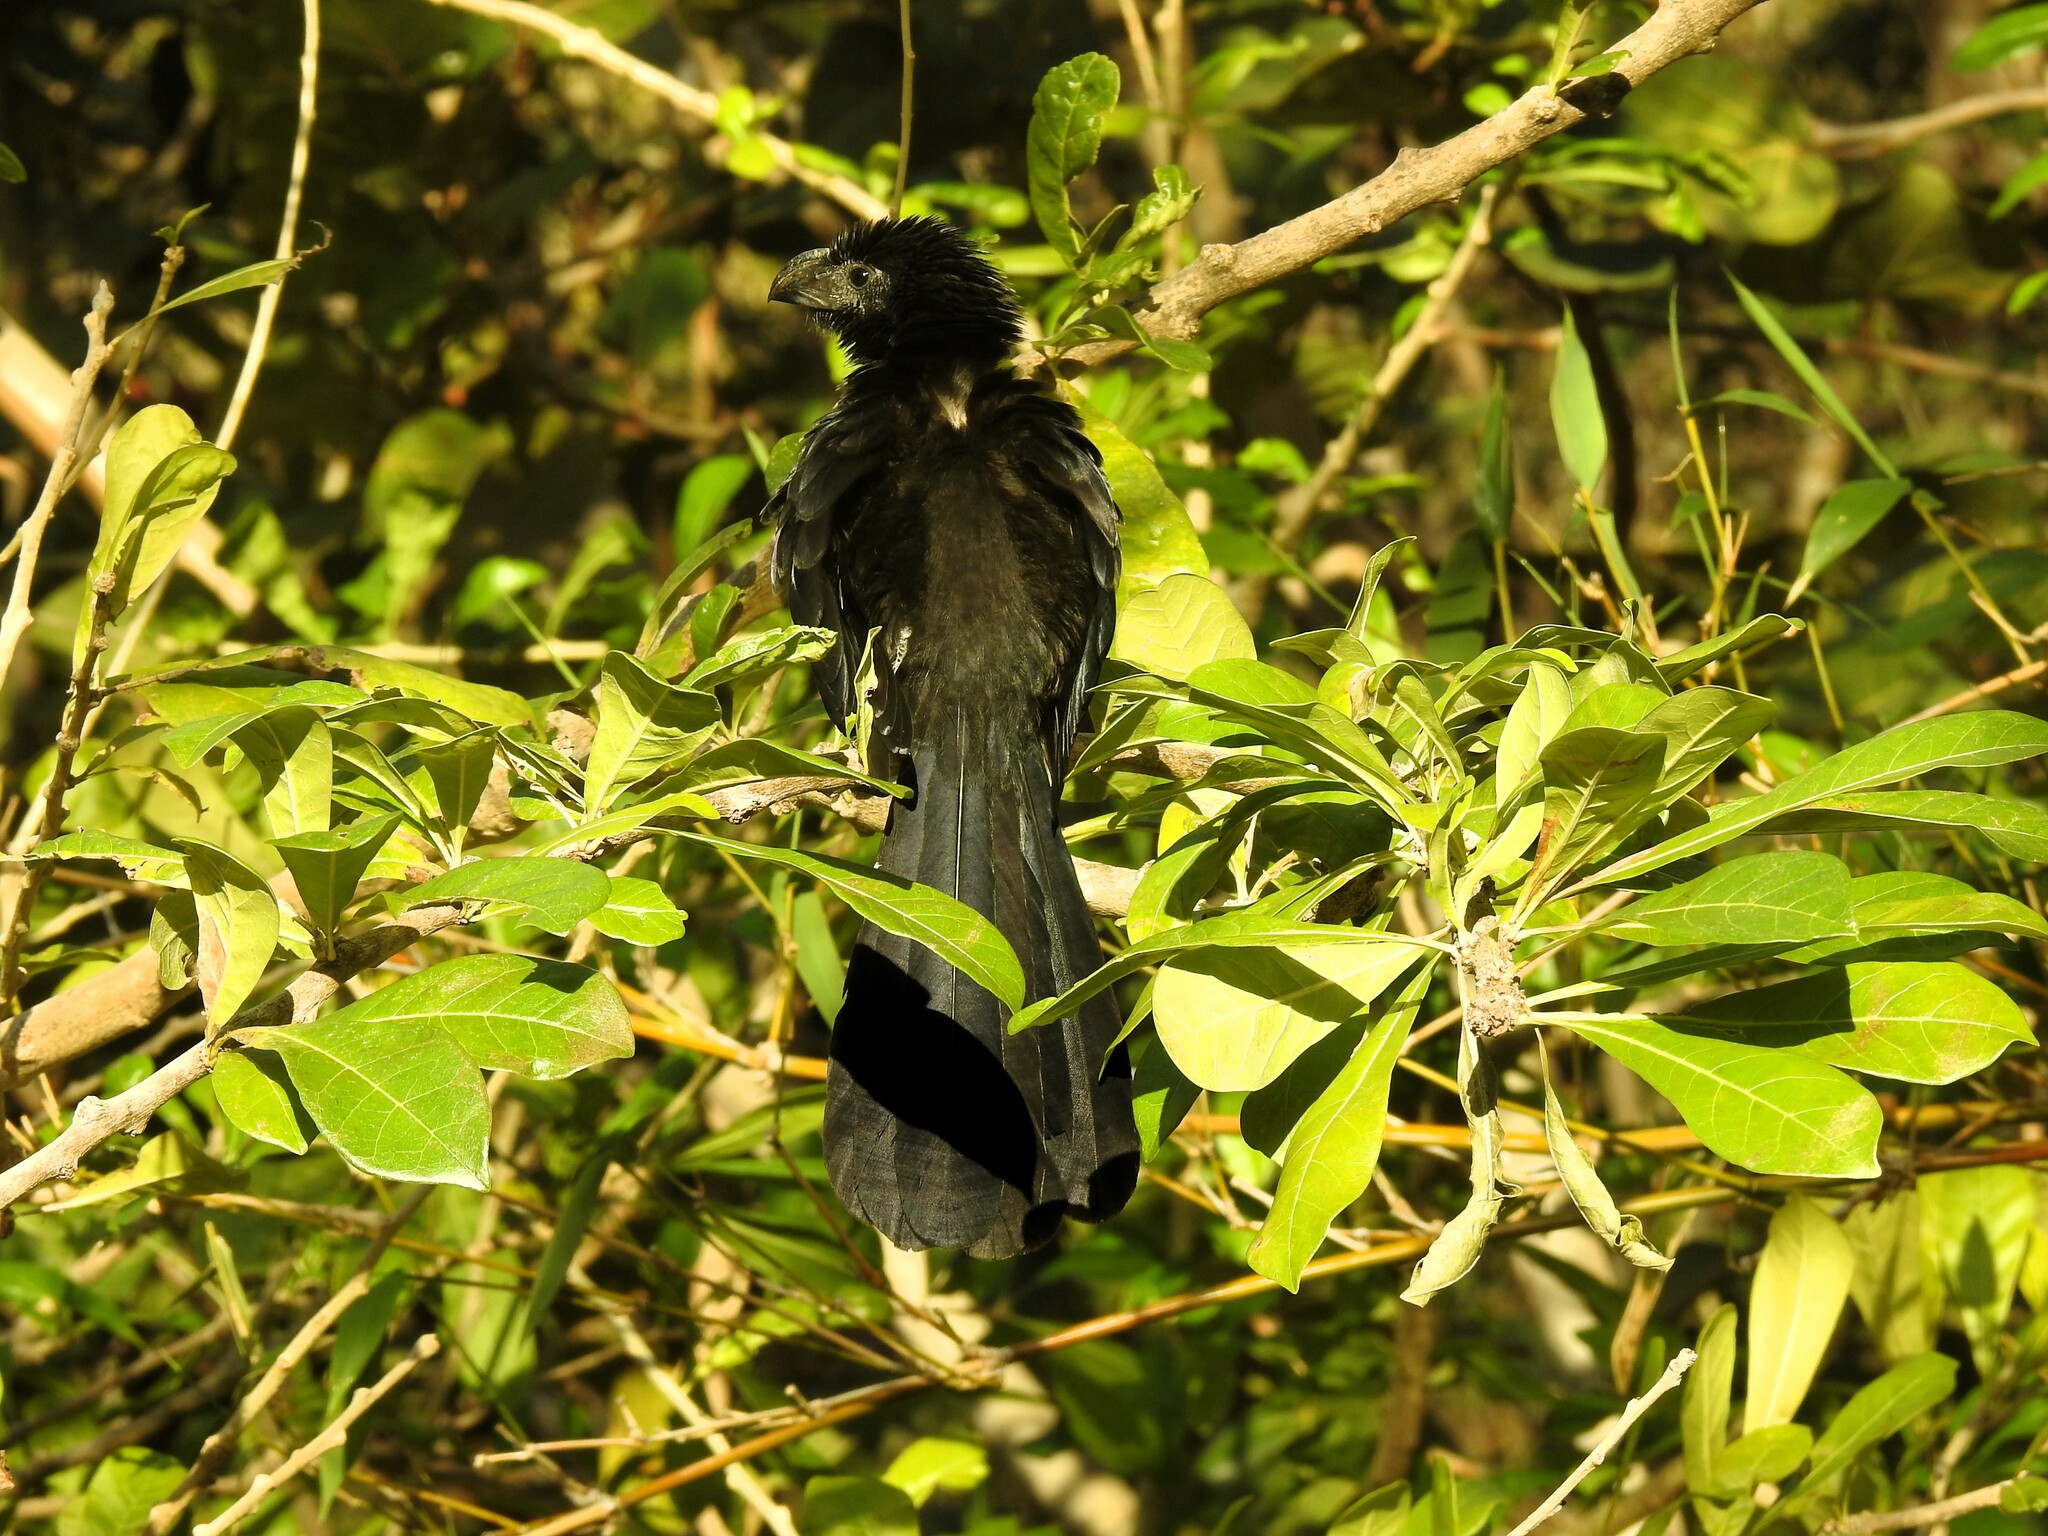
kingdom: Animalia
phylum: Chordata
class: Aves
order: Cuculiformes
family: Cuculidae
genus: Crotophaga
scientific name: Crotophaga sulcirostris
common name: Groove-billed ani
